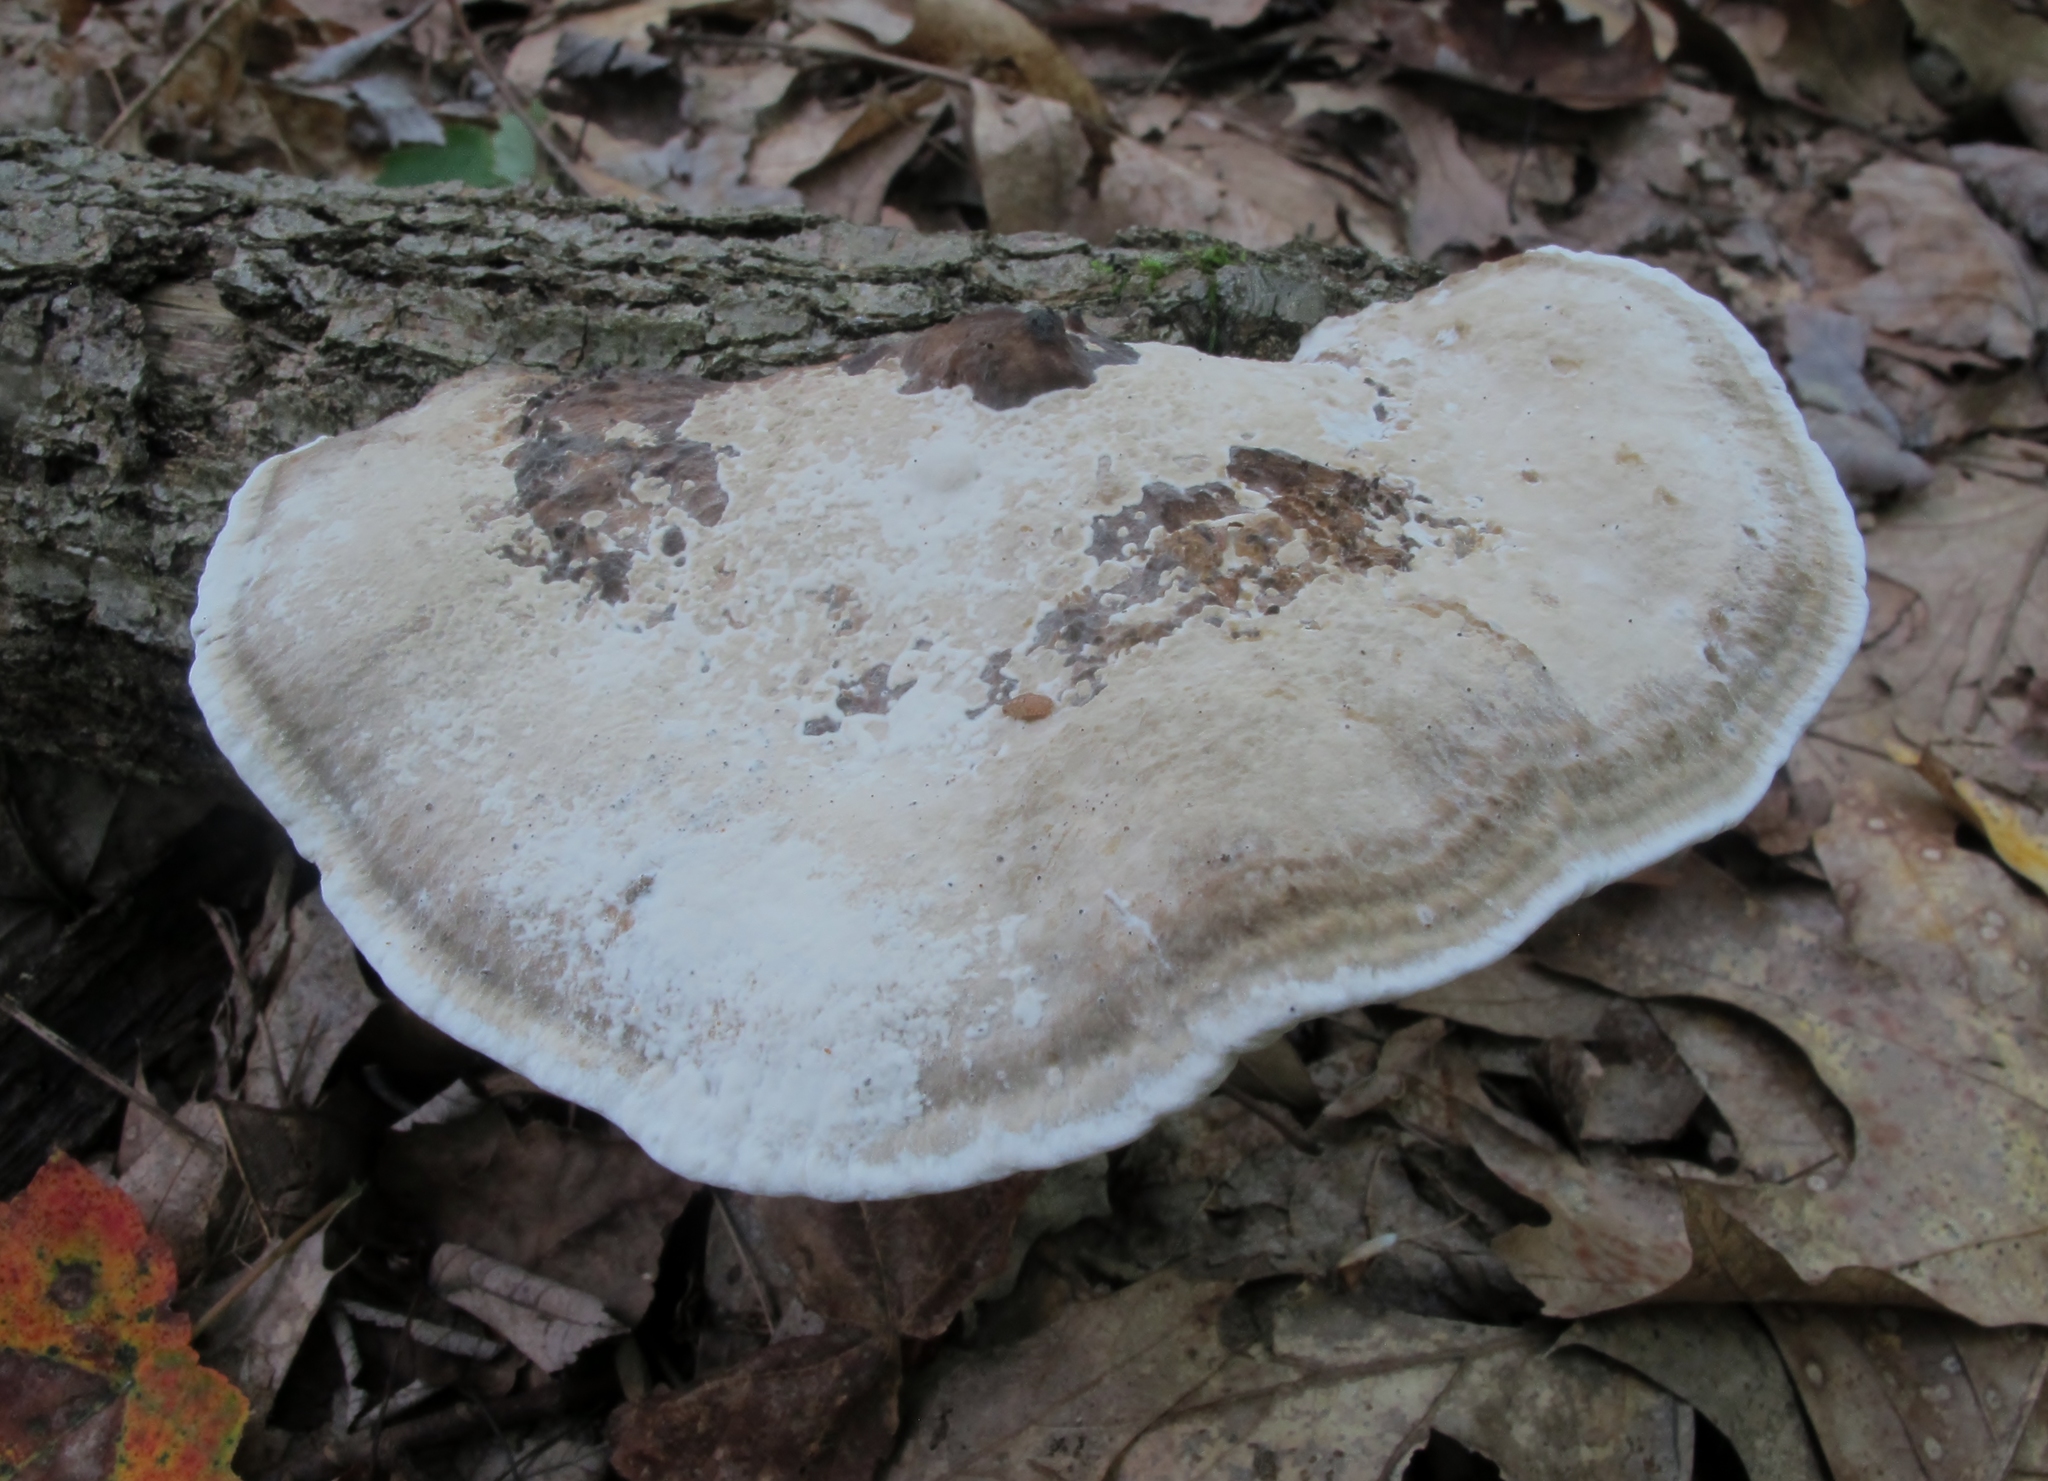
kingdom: Fungi
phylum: Basidiomycota
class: Agaricomycetes
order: Polyporales
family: Polyporaceae
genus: Trametes
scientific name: Trametes gibbosa
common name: Lumpy bracket
